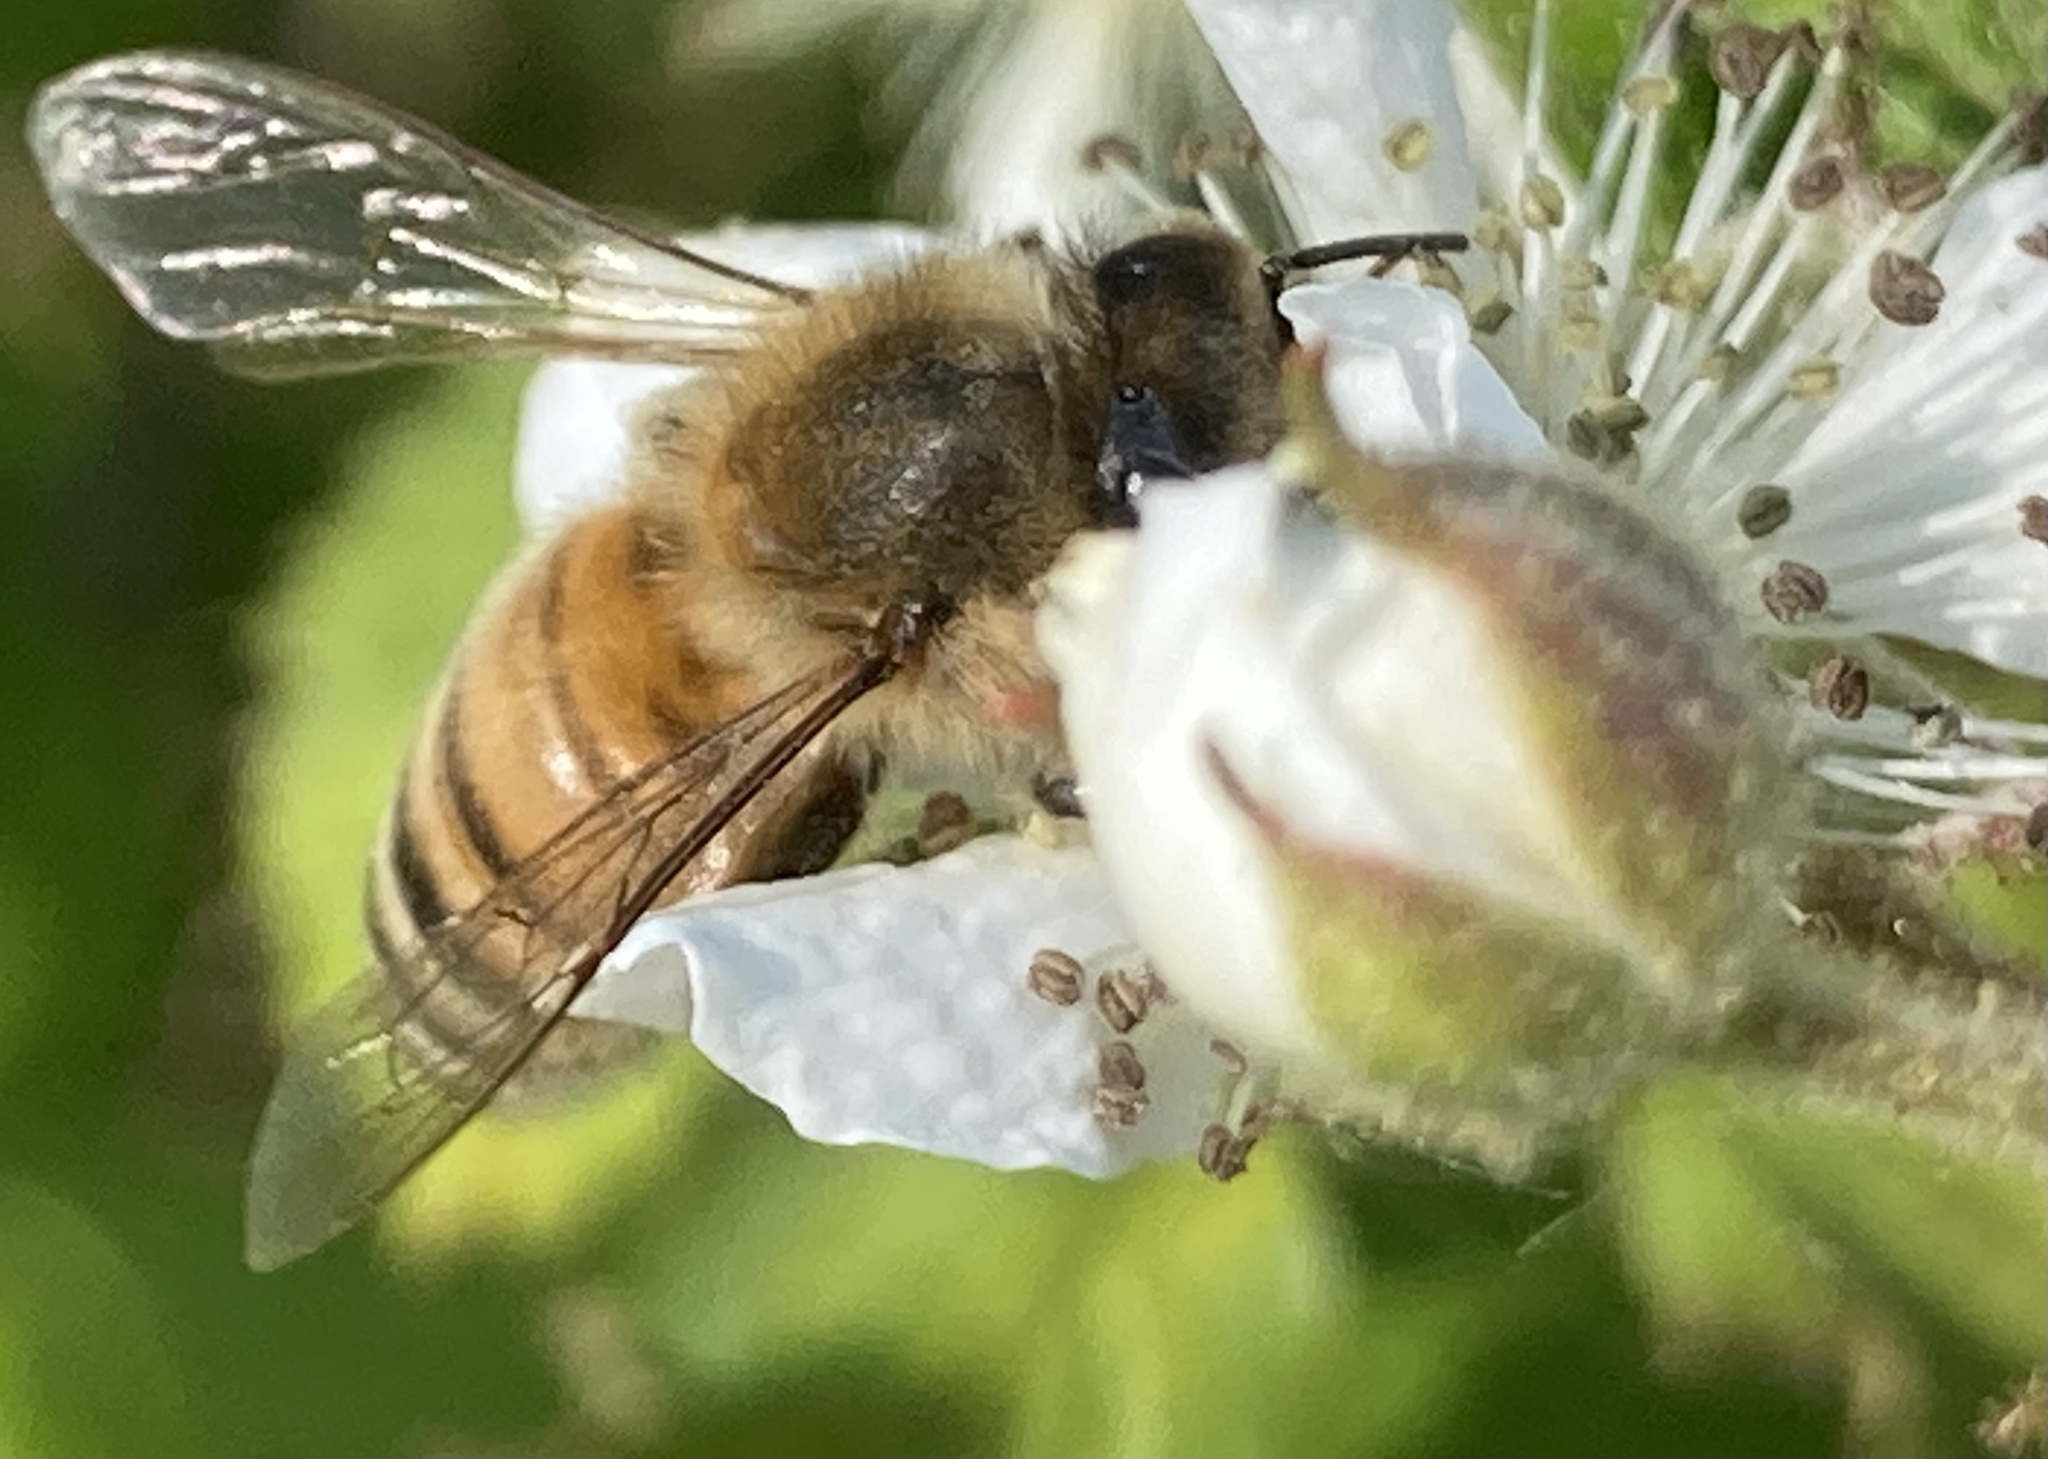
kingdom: Animalia
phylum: Arthropoda
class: Insecta
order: Hymenoptera
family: Apidae
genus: Apis
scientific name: Apis mellifera
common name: Honey bee
